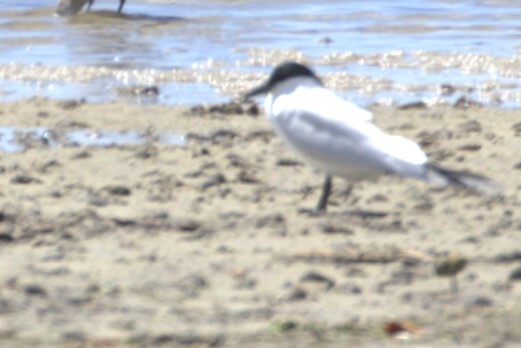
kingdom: Animalia
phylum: Chordata
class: Aves
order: Charadriiformes
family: Laridae
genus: Gelochelidon
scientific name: Gelochelidon macrotarsa
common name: Australian tern
